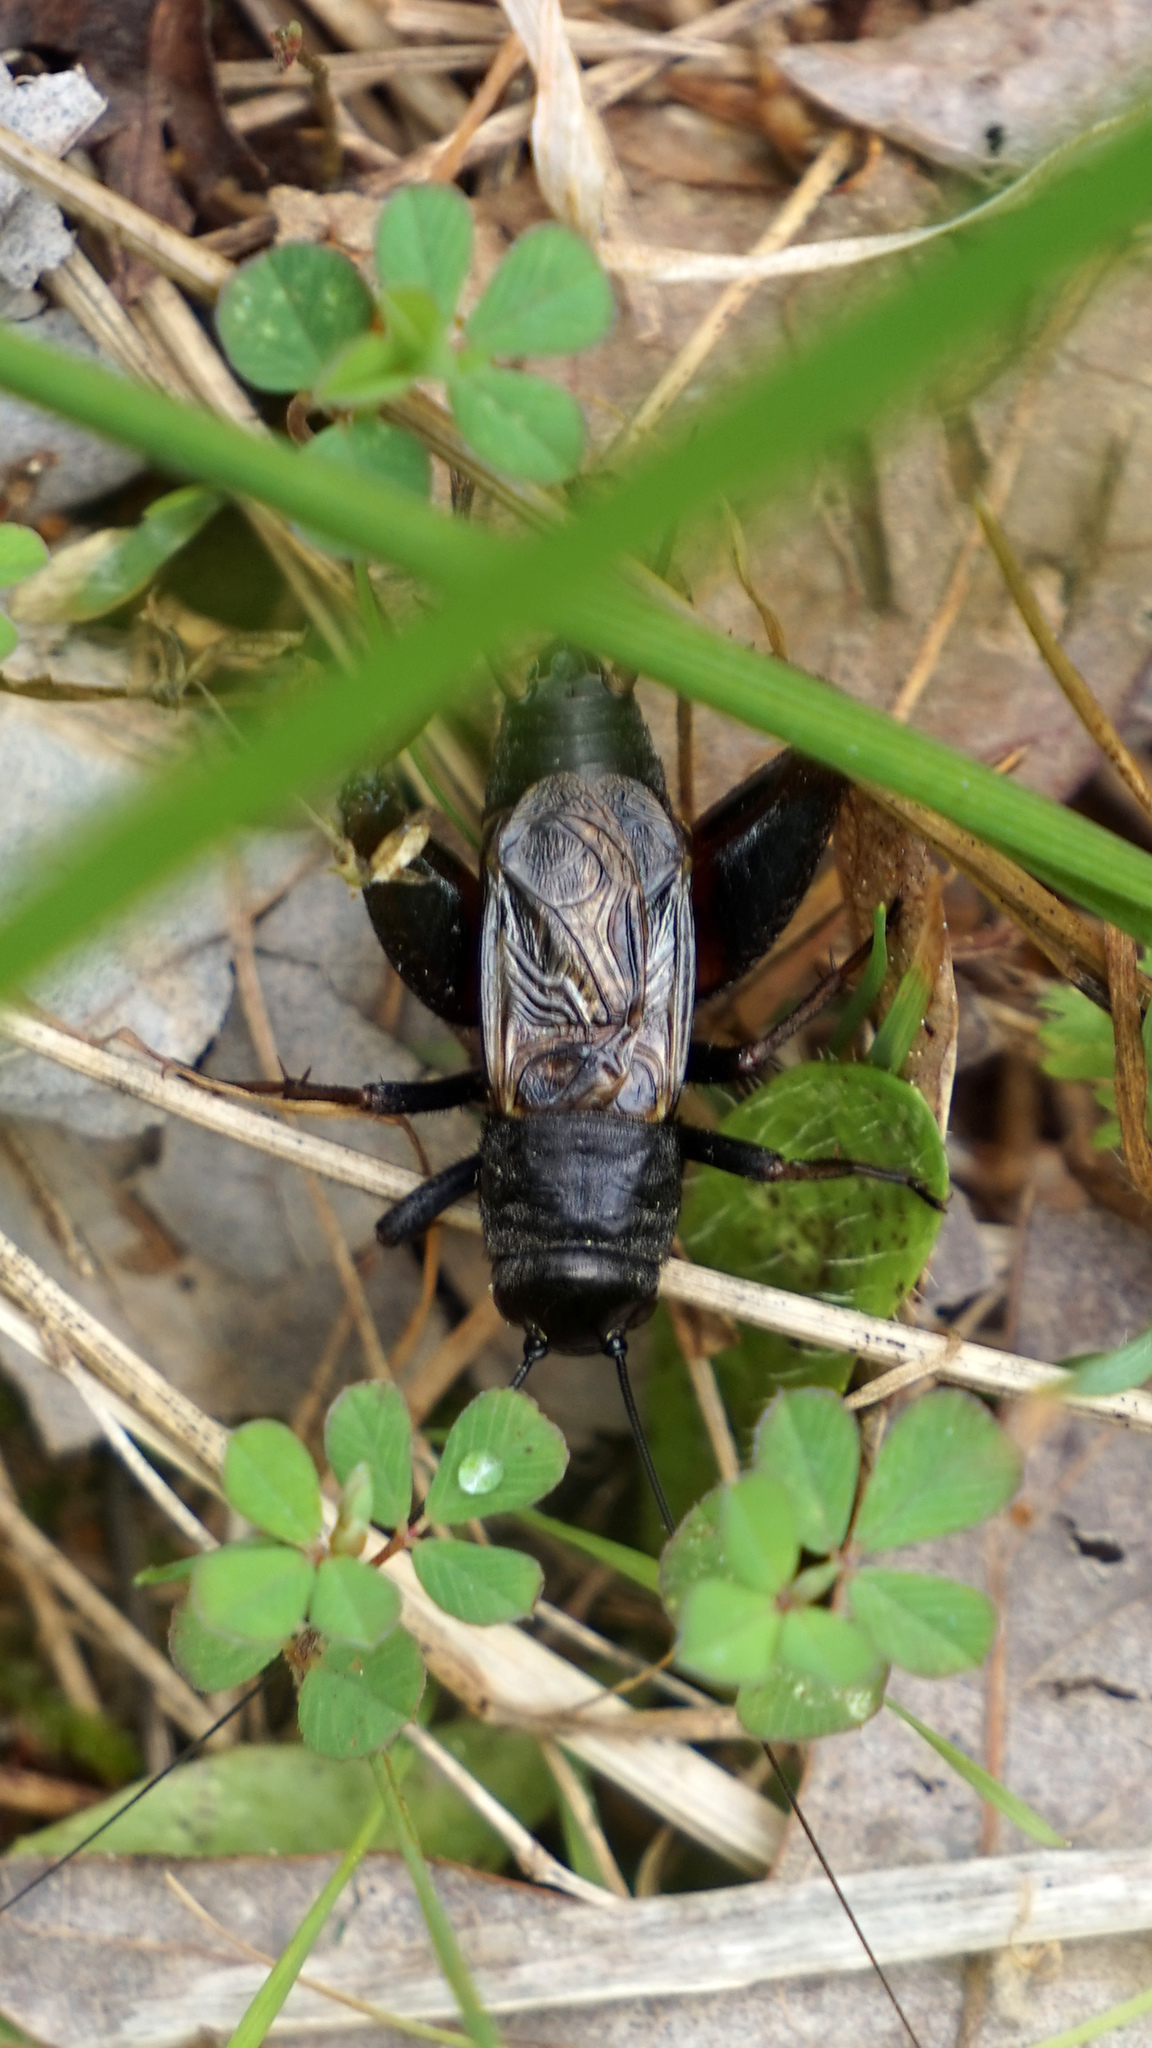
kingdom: Animalia
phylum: Arthropoda
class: Insecta
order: Orthoptera
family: Gryllidae
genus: Gryllus
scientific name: Gryllus veletis
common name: Spring field cricket
